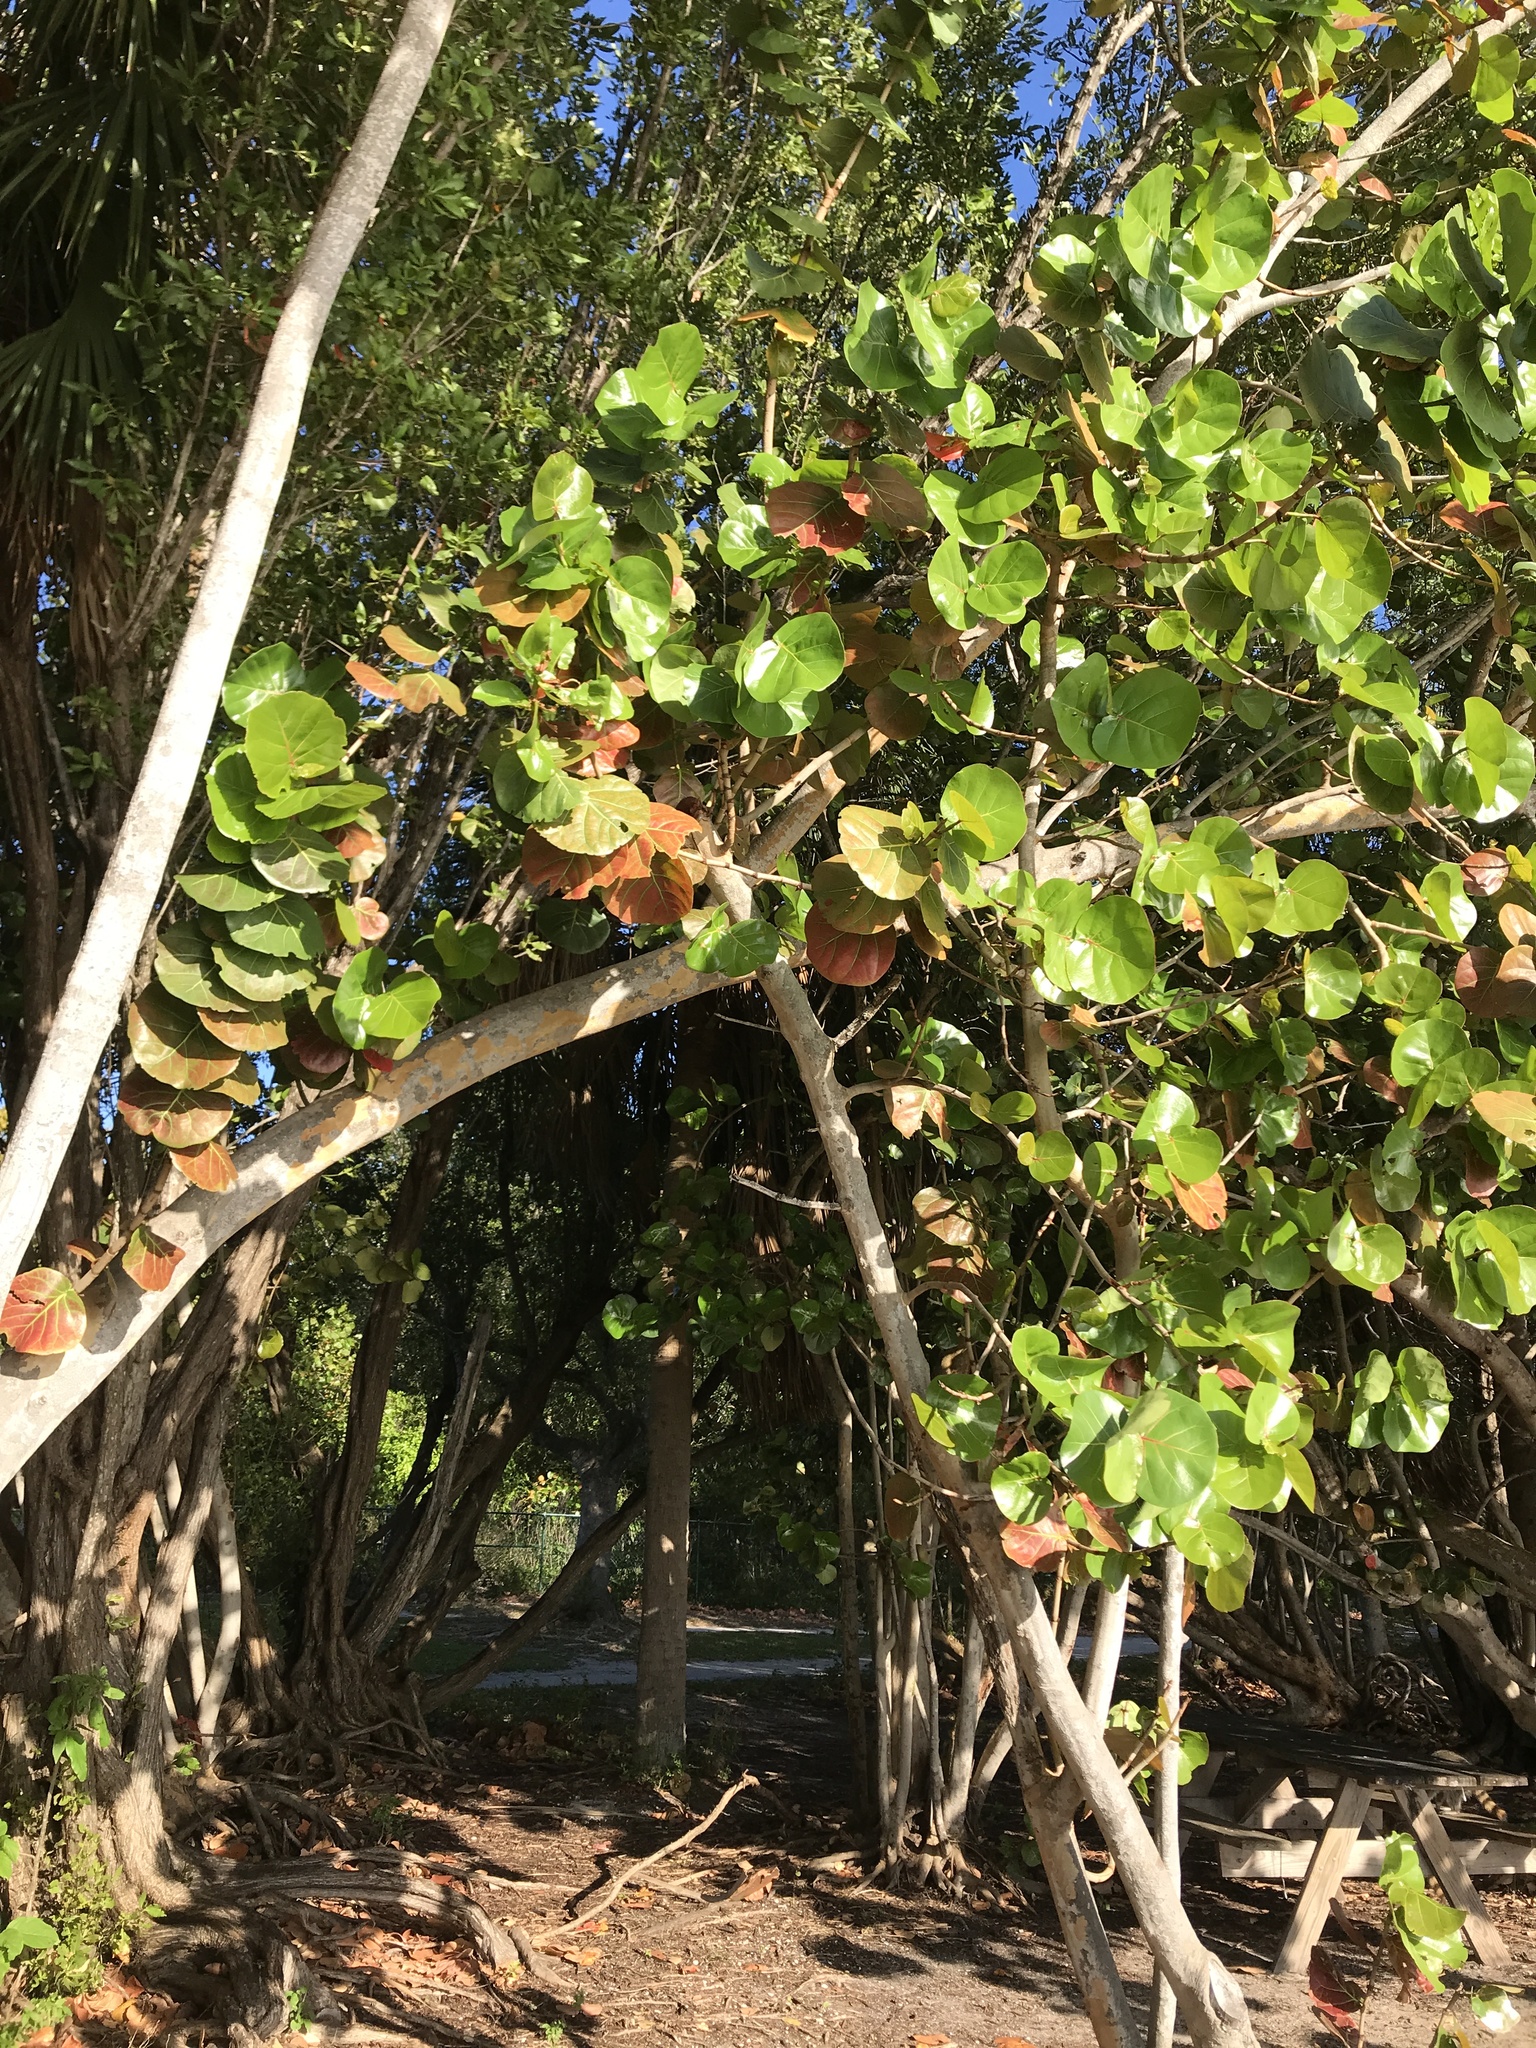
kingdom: Plantae
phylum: Tracheophyta
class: Magnoliopsida
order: Caryophyllales
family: Polygonaceae
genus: Coccoloba
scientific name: Coccoloba uvifera
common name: Seagrape
